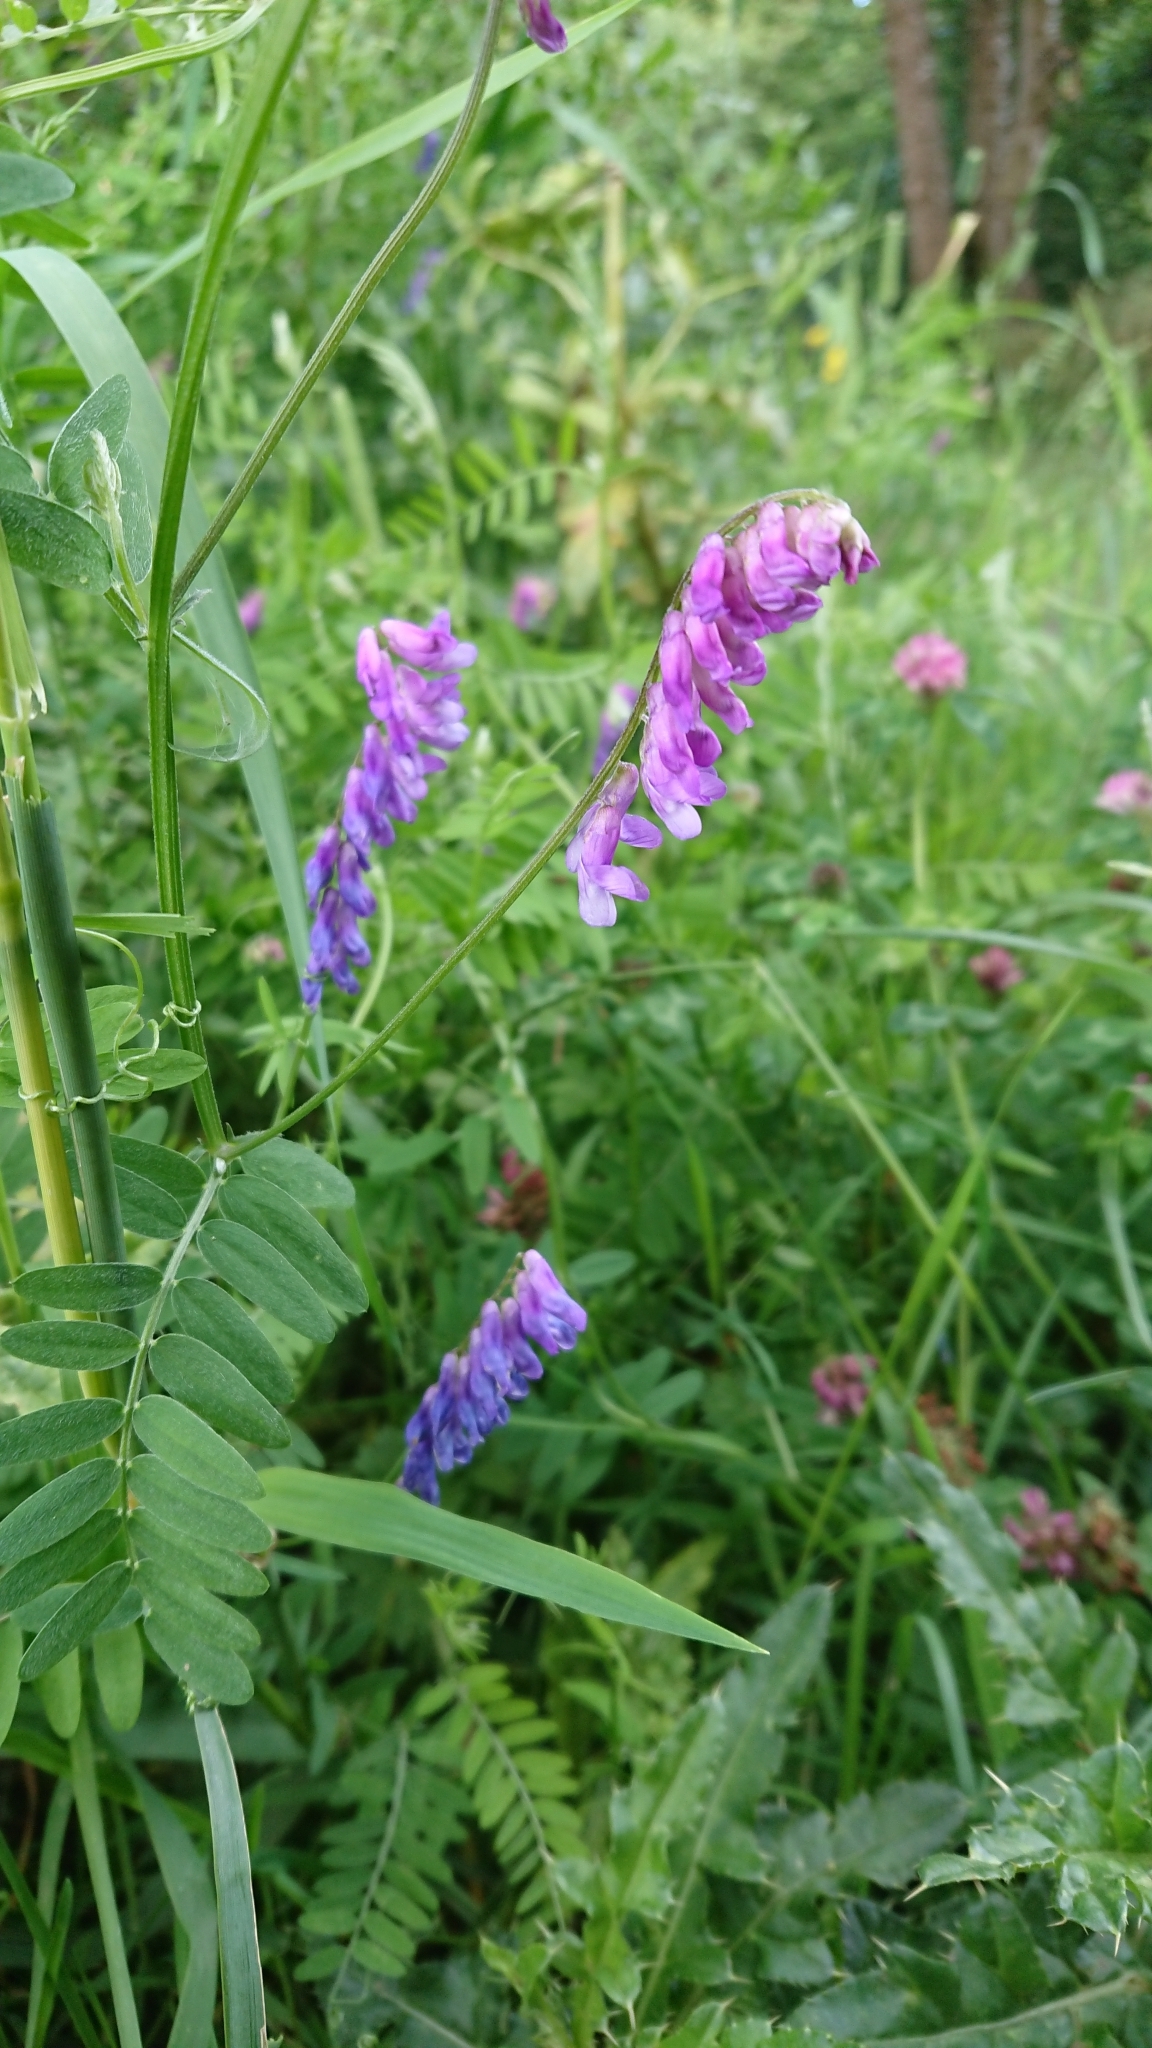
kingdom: Plantae
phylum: Tracheophyta
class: Magnoliopsida
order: Fabales
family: Fabaceae
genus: Vicia
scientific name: Vicia cracca
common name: Bird vetch
